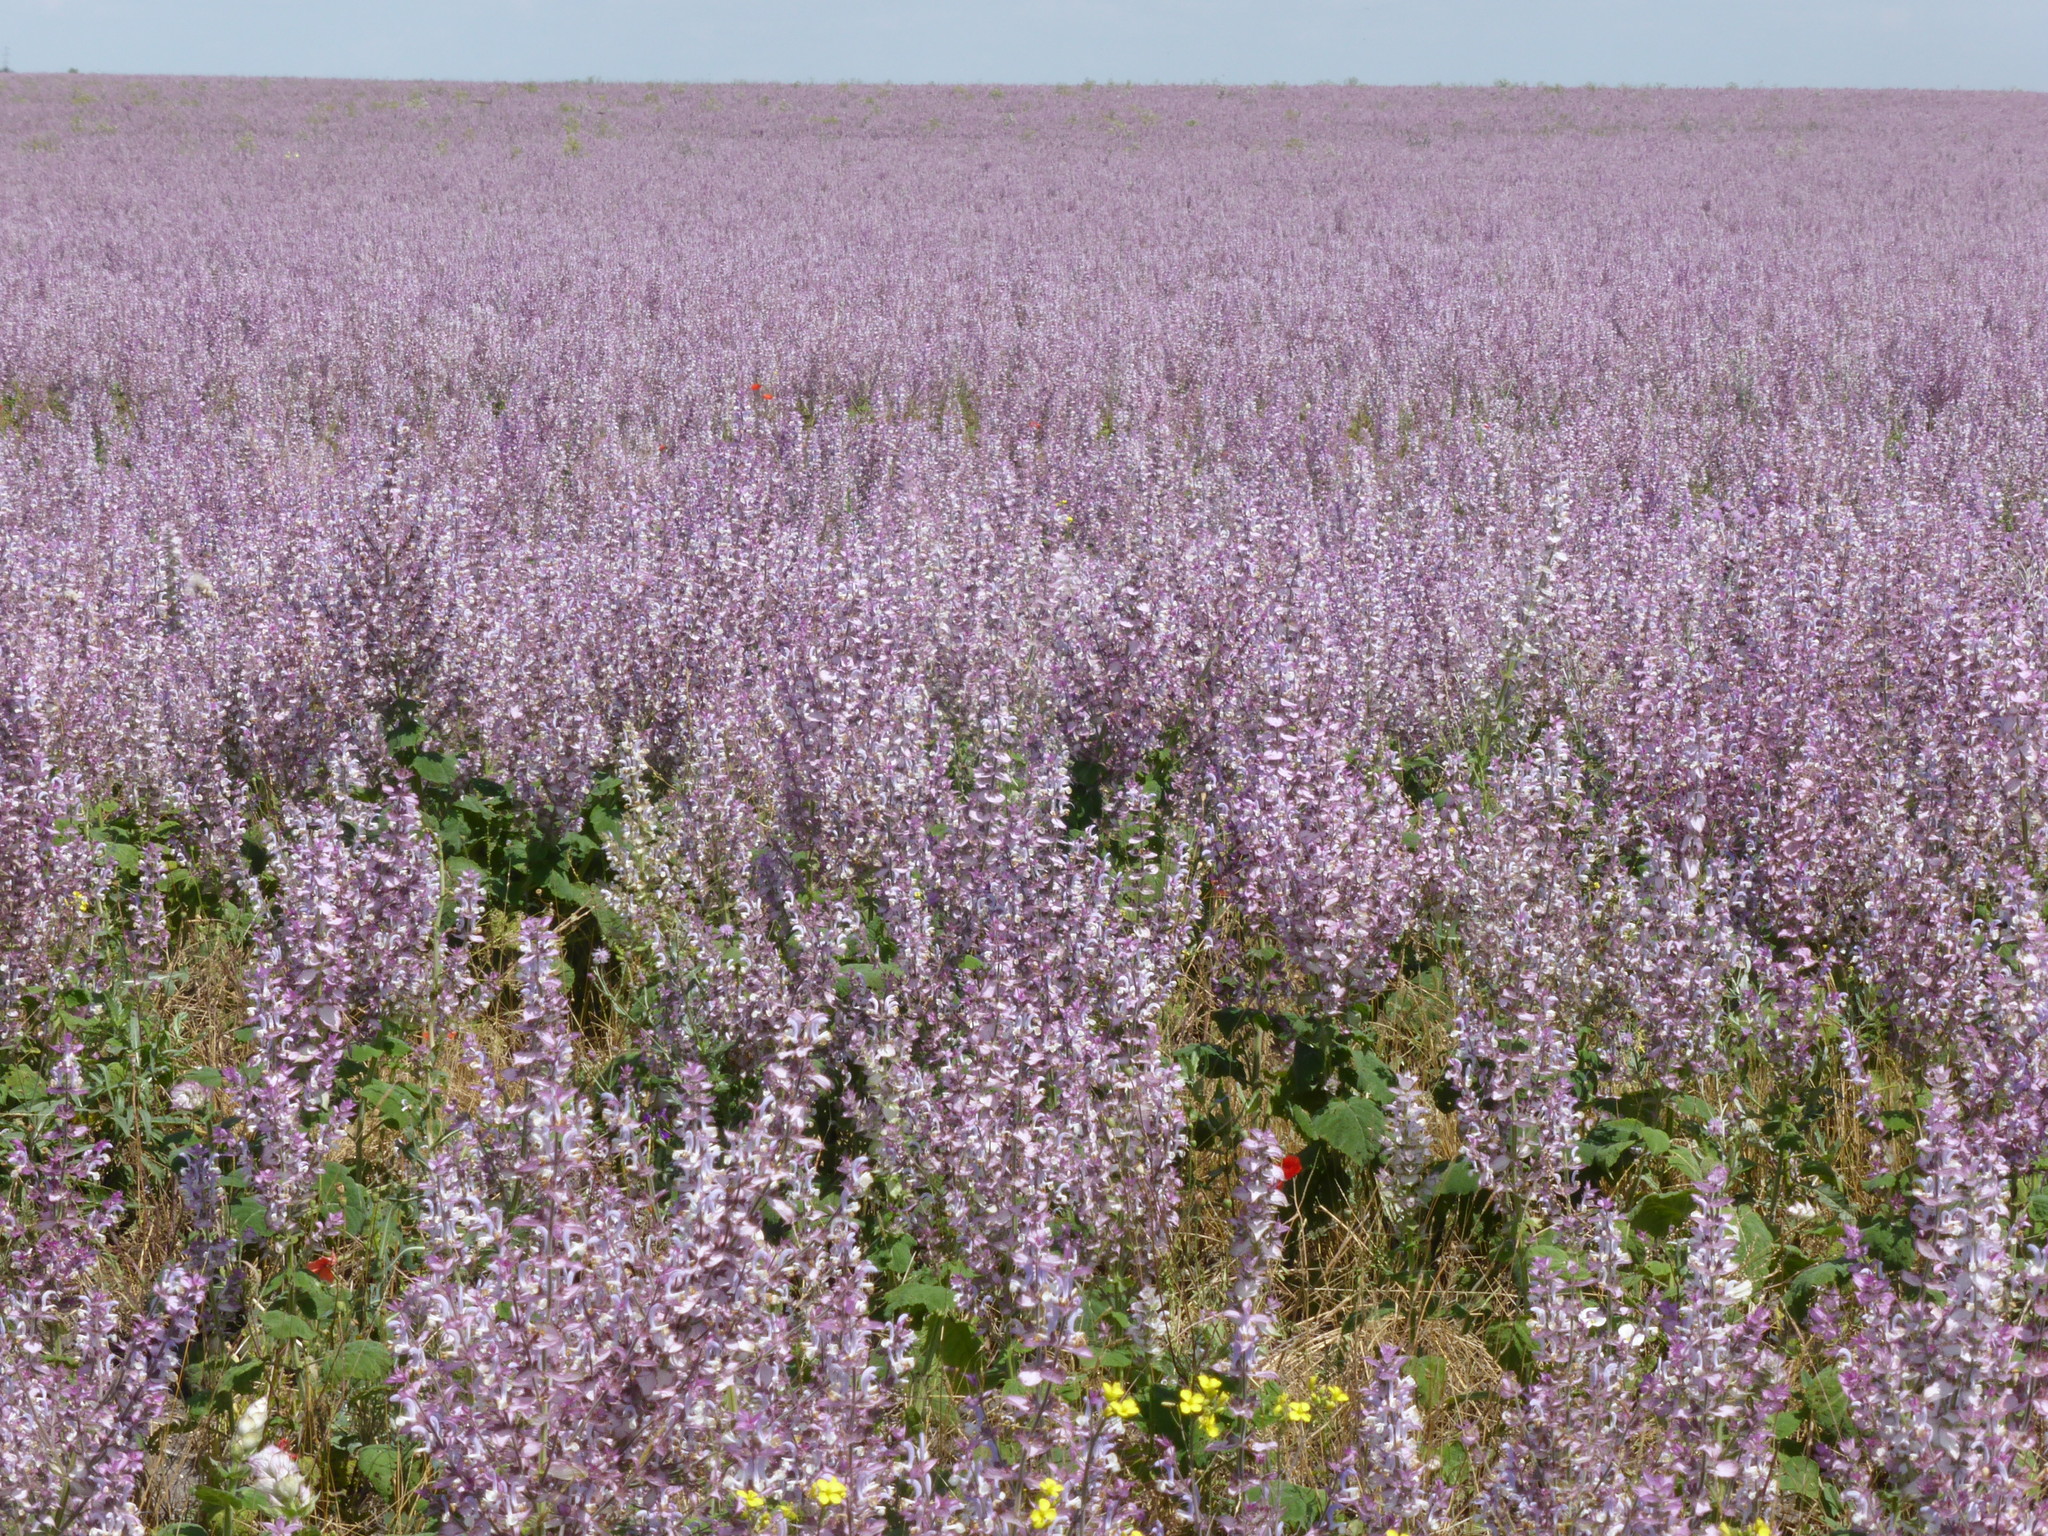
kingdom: Plantae
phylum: Tracheophyta
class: Magnoliopsida
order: Lamiales
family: Lamiaceae
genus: Salvia
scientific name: Salvia sclarea
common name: Clary
